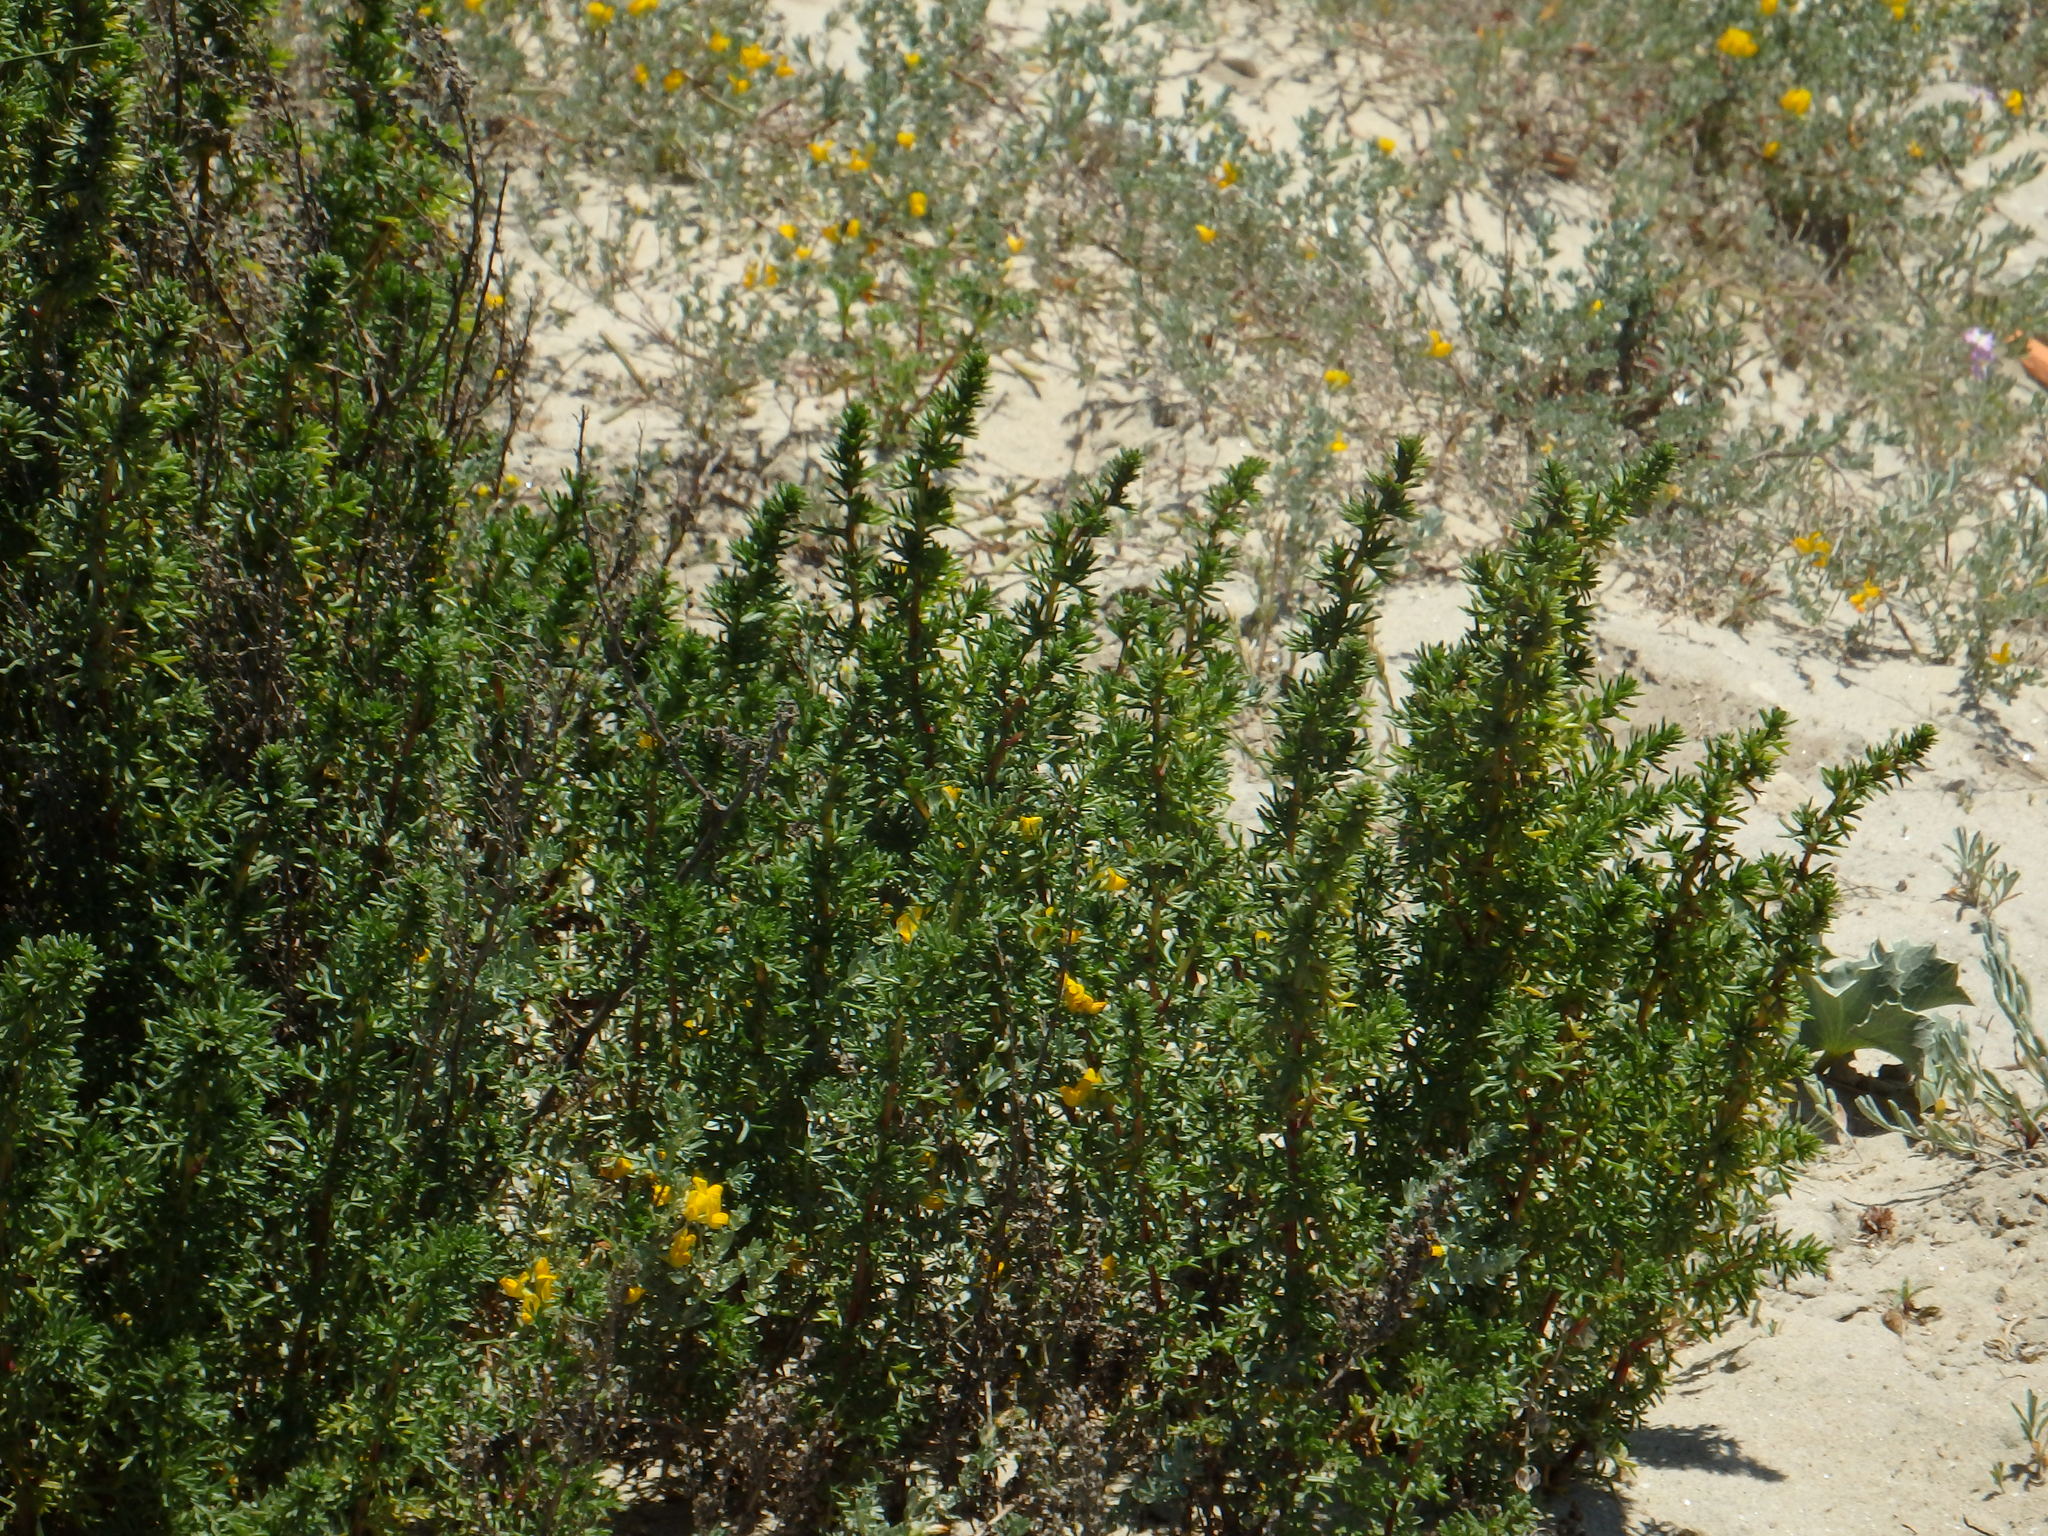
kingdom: Plantae
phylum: Tracheophyta
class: Magnoliopsida
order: Asterales
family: Asteraceae
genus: Artemisia
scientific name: Artemisia crithmifolia
